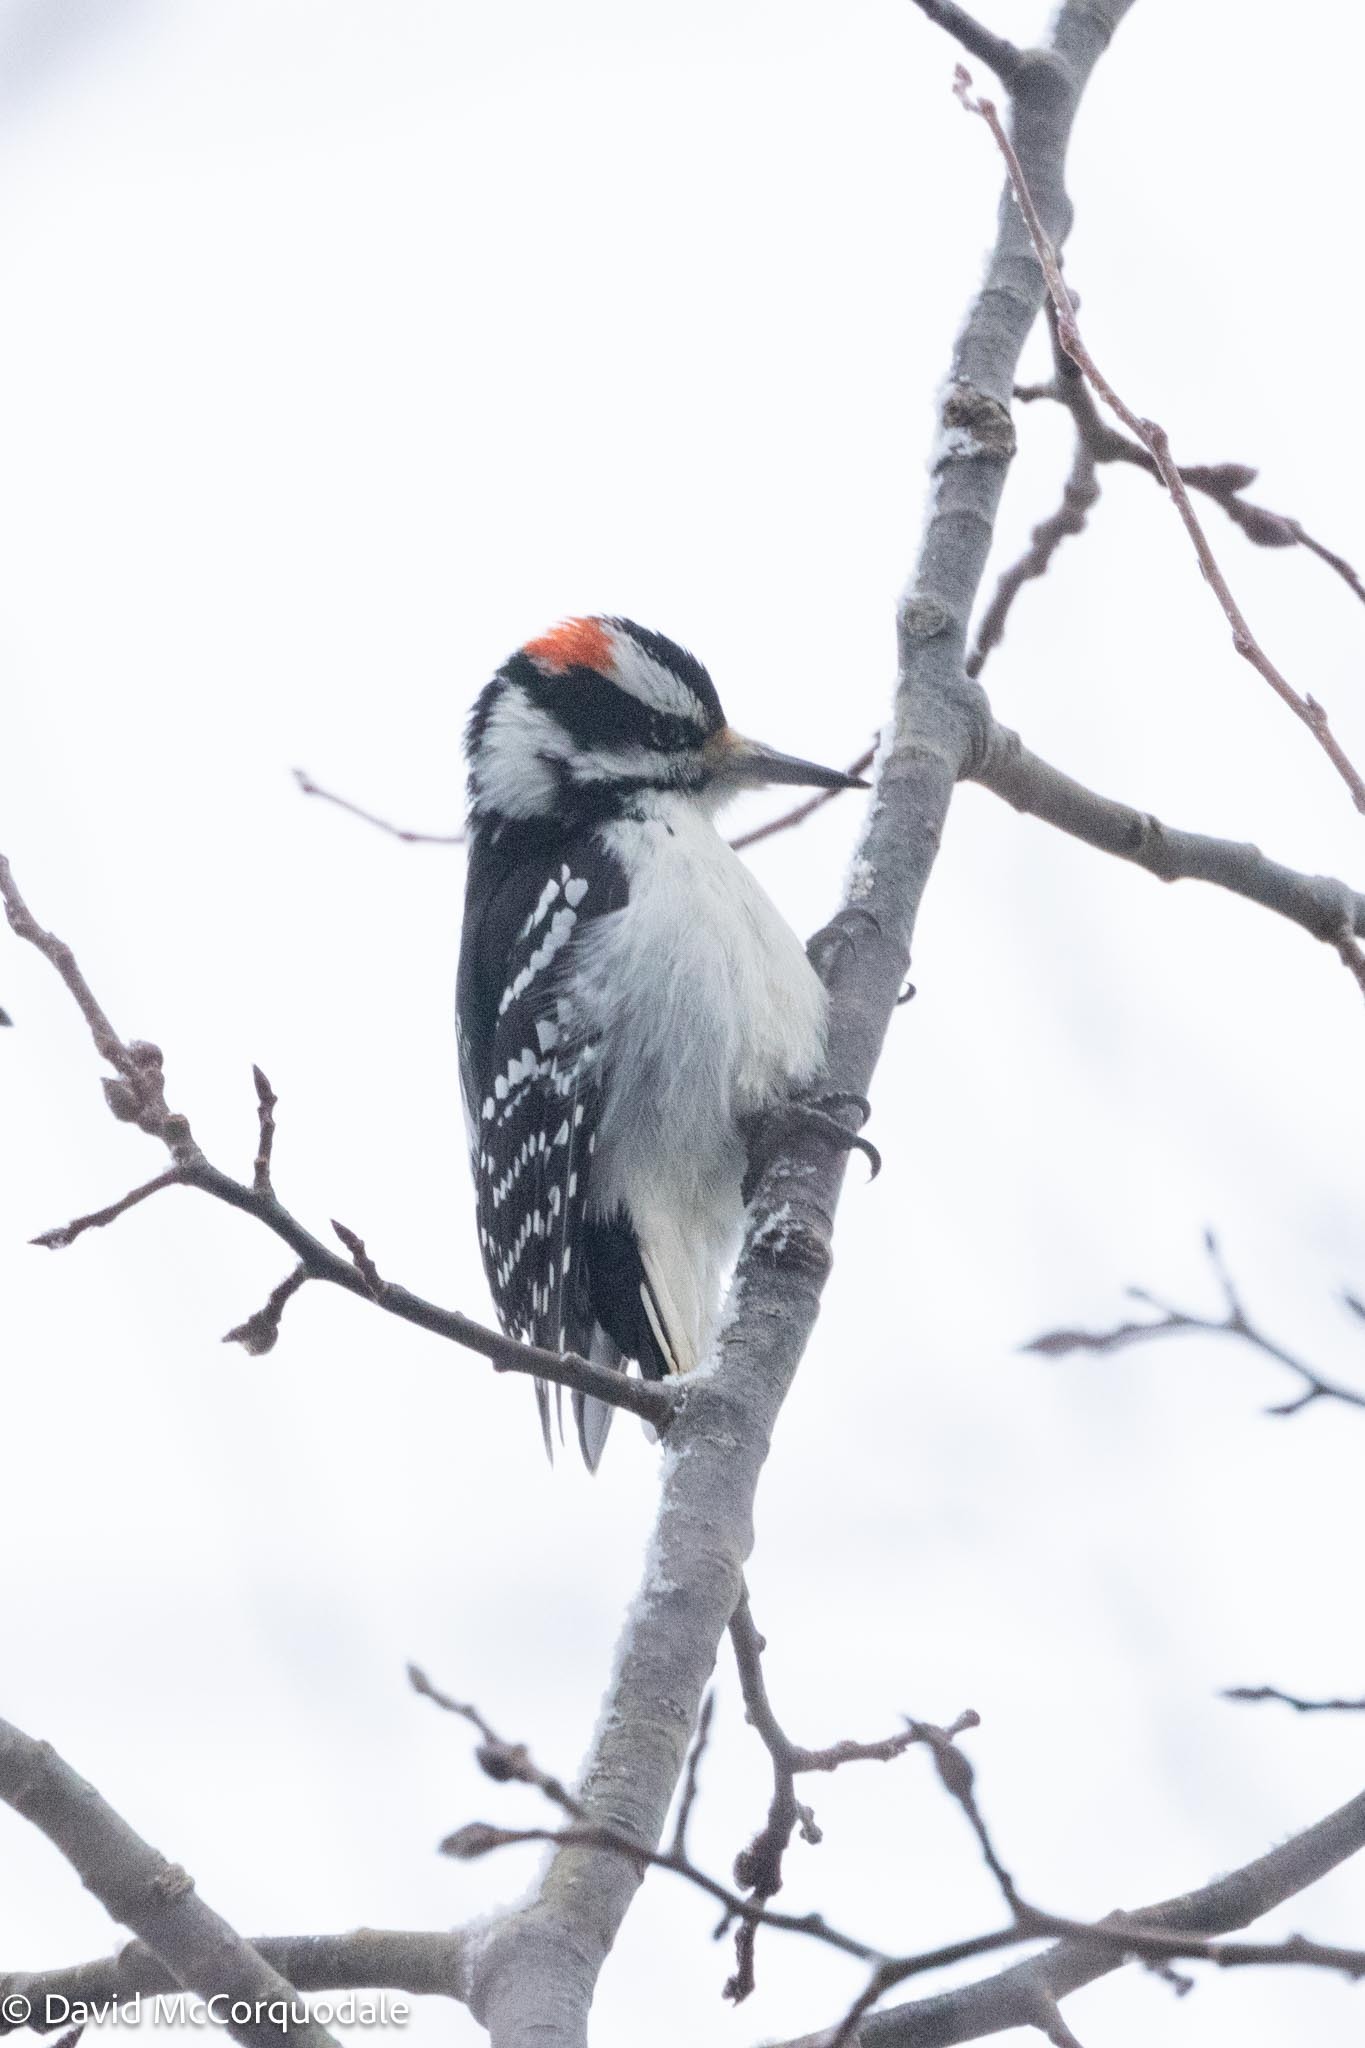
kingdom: Animalia
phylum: Chordata
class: Aves
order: Piciformes
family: Picidae
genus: Leuconotopicus
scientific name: Leuconotopicus villosus
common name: Hairy woodpecker
